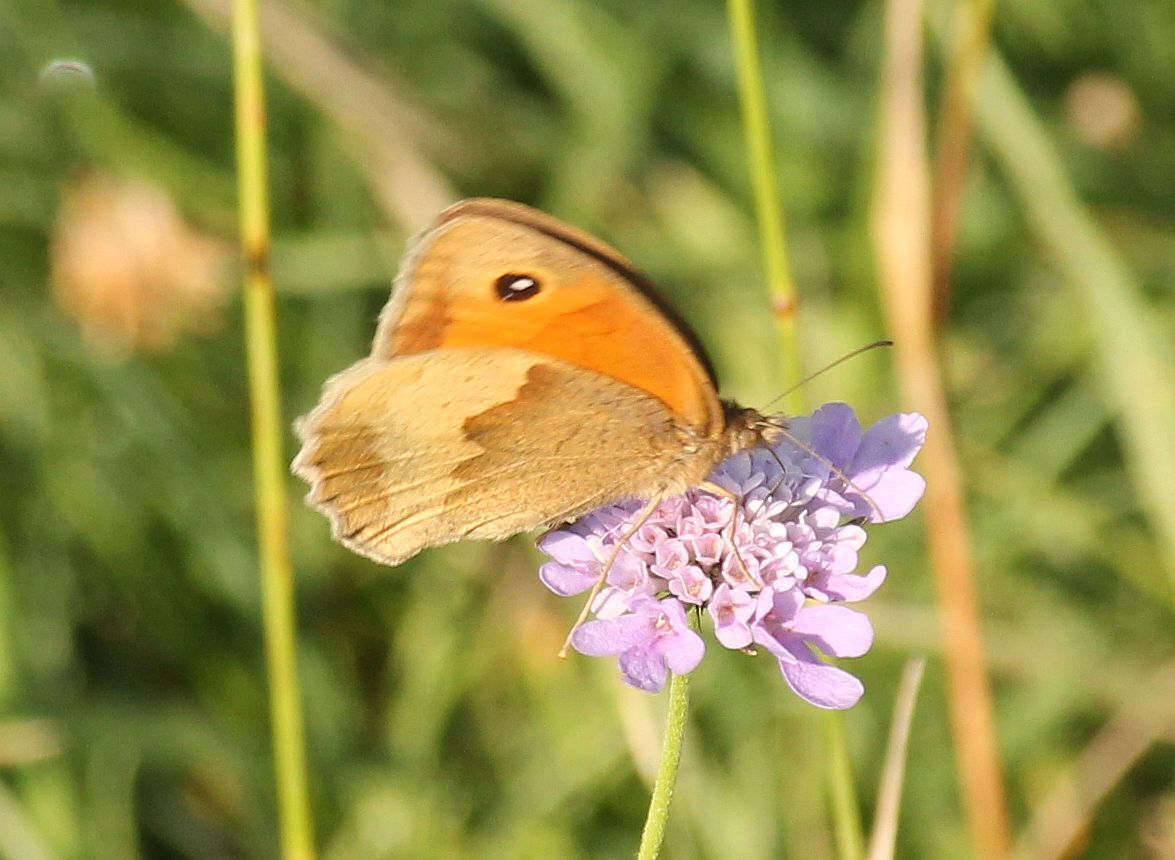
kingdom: Animalia
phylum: Arthropoda
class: Insecta
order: Lepidoptera
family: Nymphalidae
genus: Maniola
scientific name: Maniola jurtina
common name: Meadow brown
